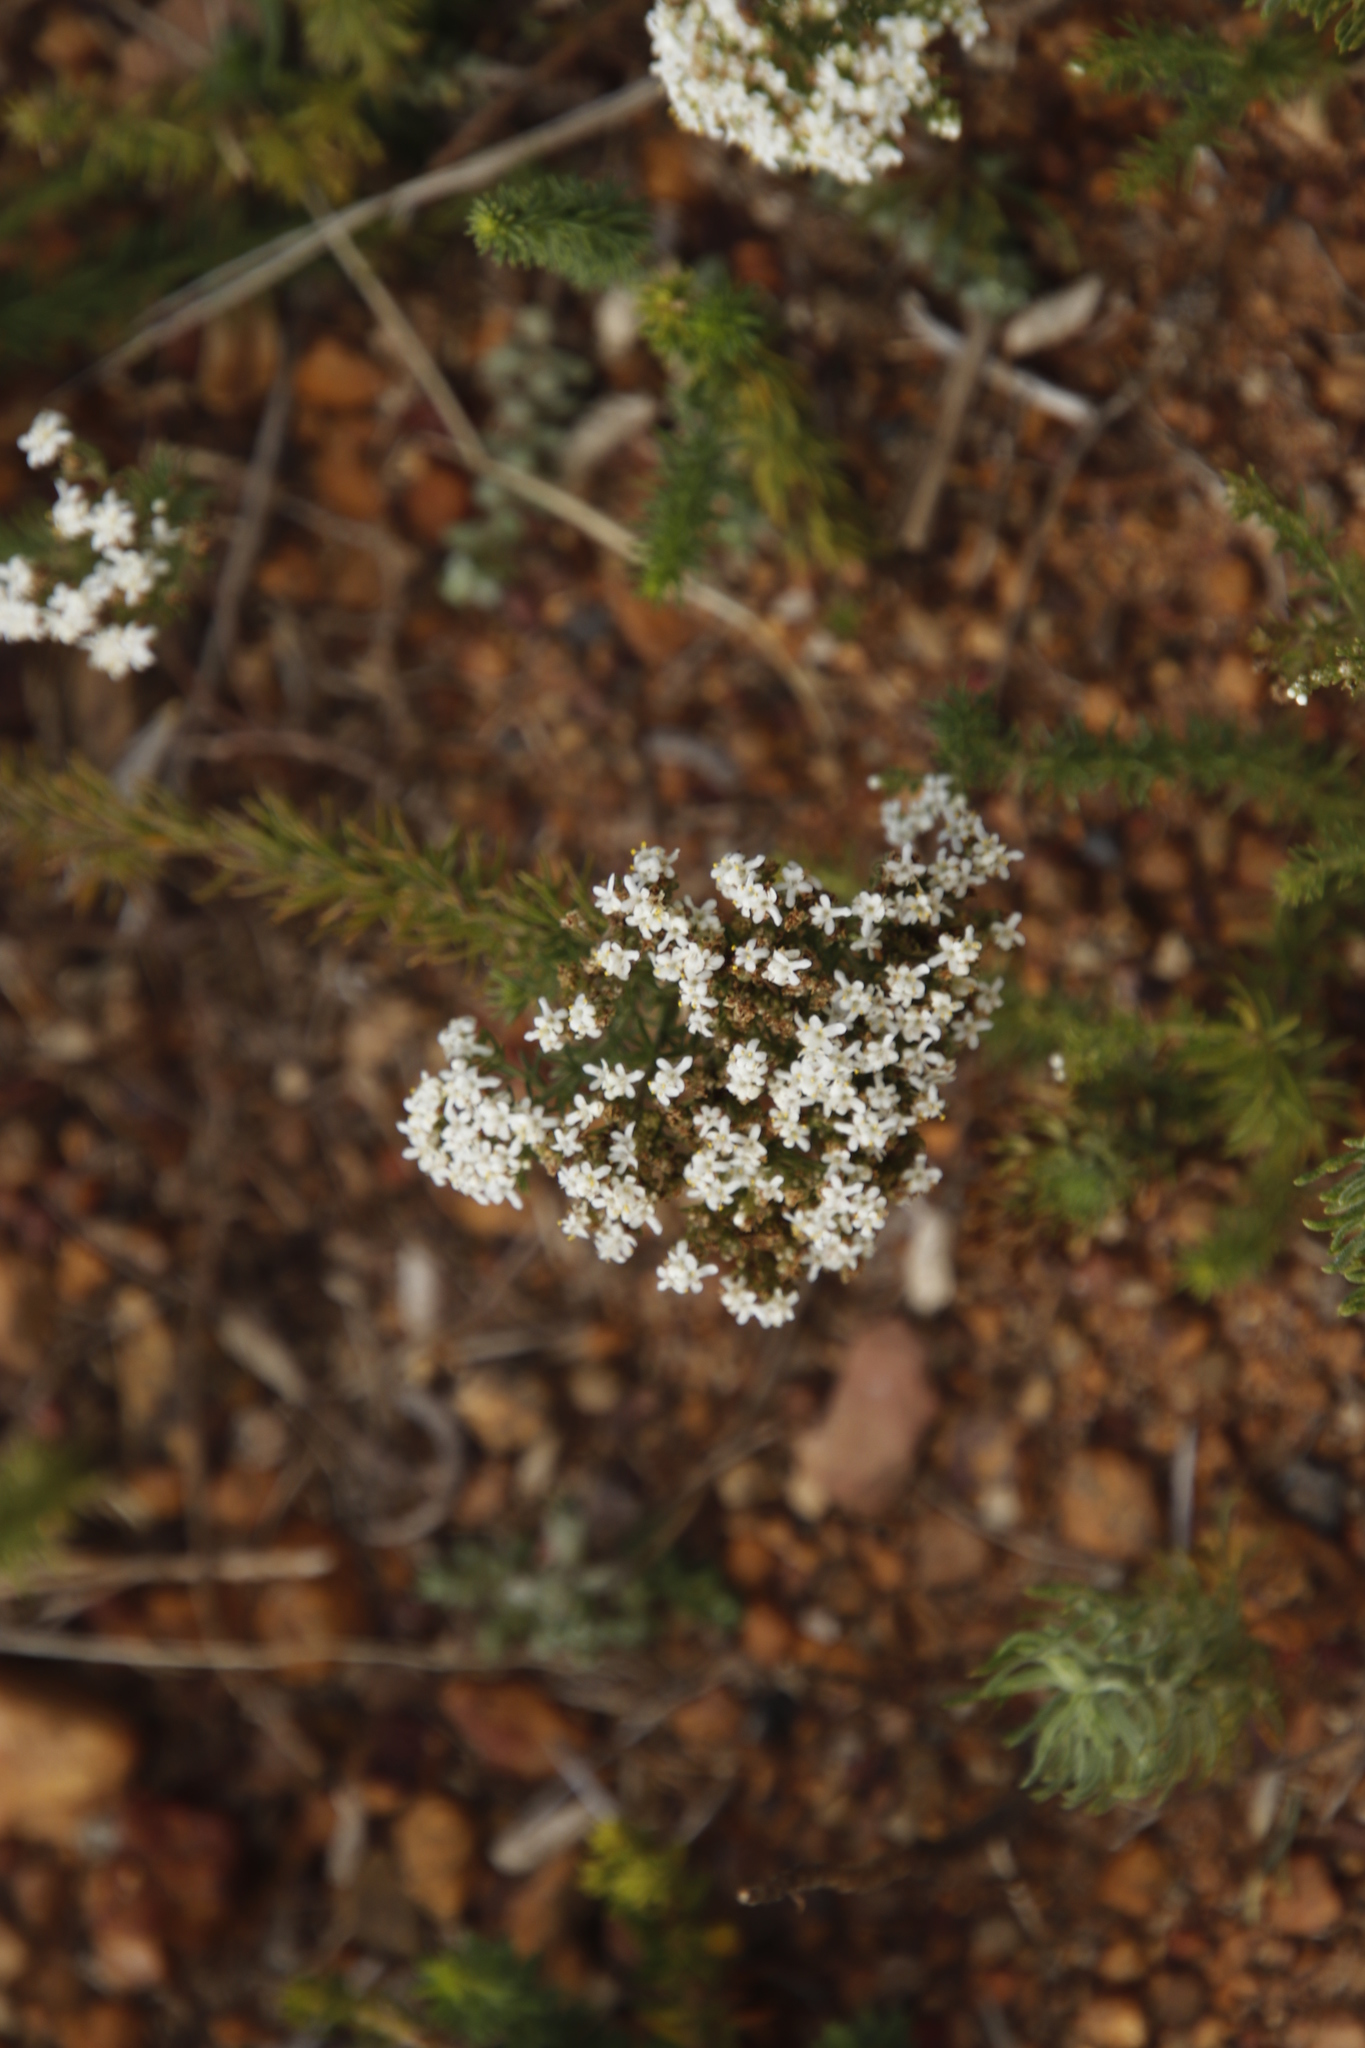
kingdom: Plantae
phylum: Tracheophyta
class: Magnoliopsida
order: Lamiales
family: Scrophulariaceae
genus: Selago
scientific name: Selago corymbosa
